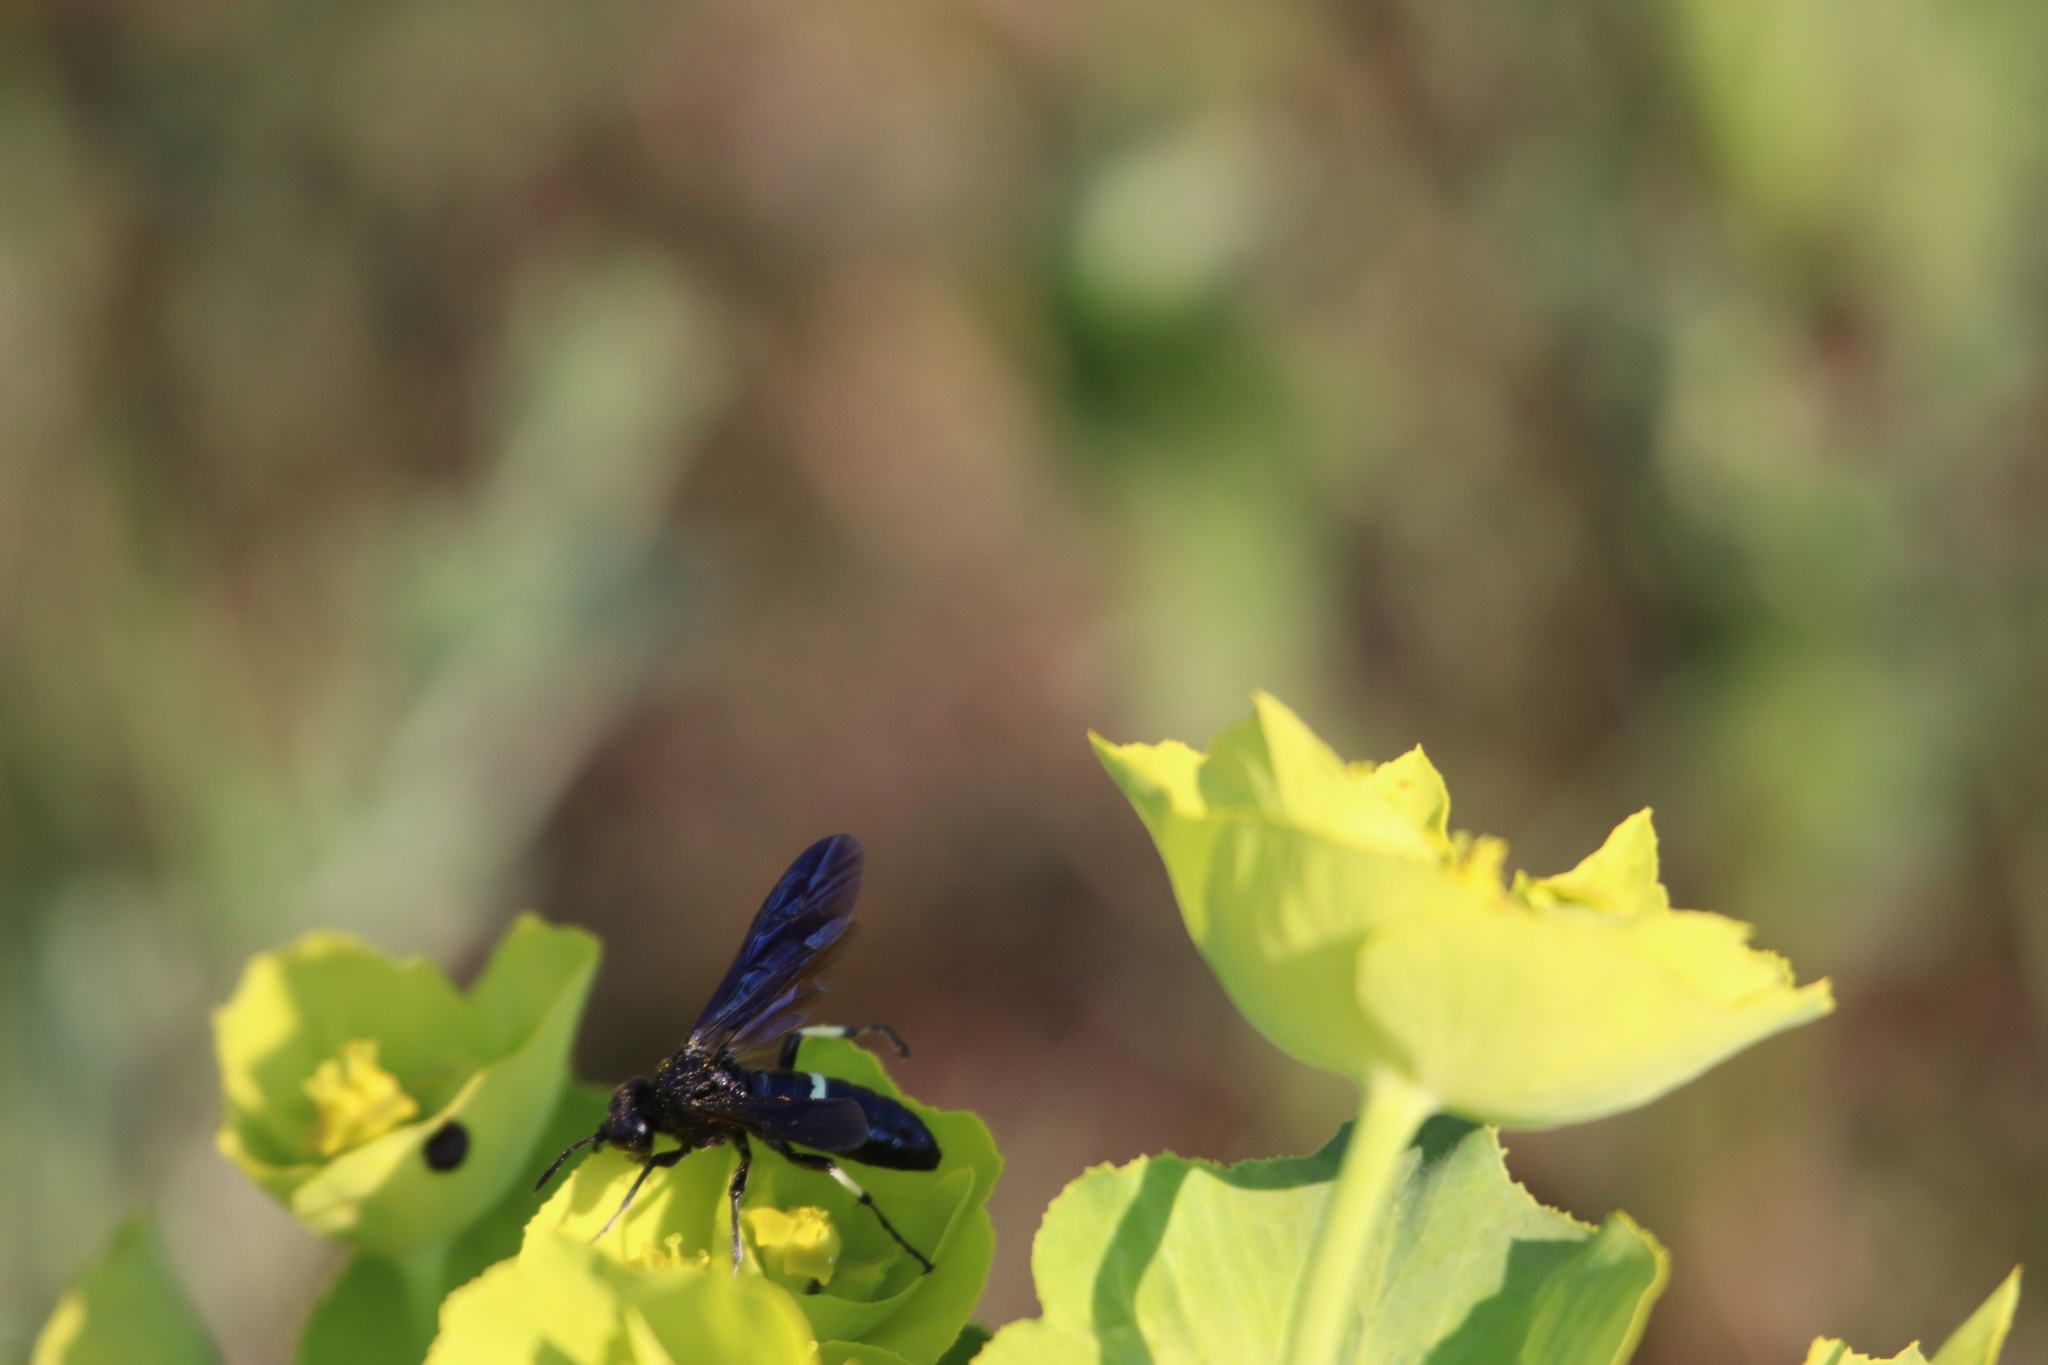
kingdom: Animalia
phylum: Arthropoda
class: Insecta
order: Hymenoptera
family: Tenthredinidae
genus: Tenthredo
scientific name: Tenthredo bifasciata
